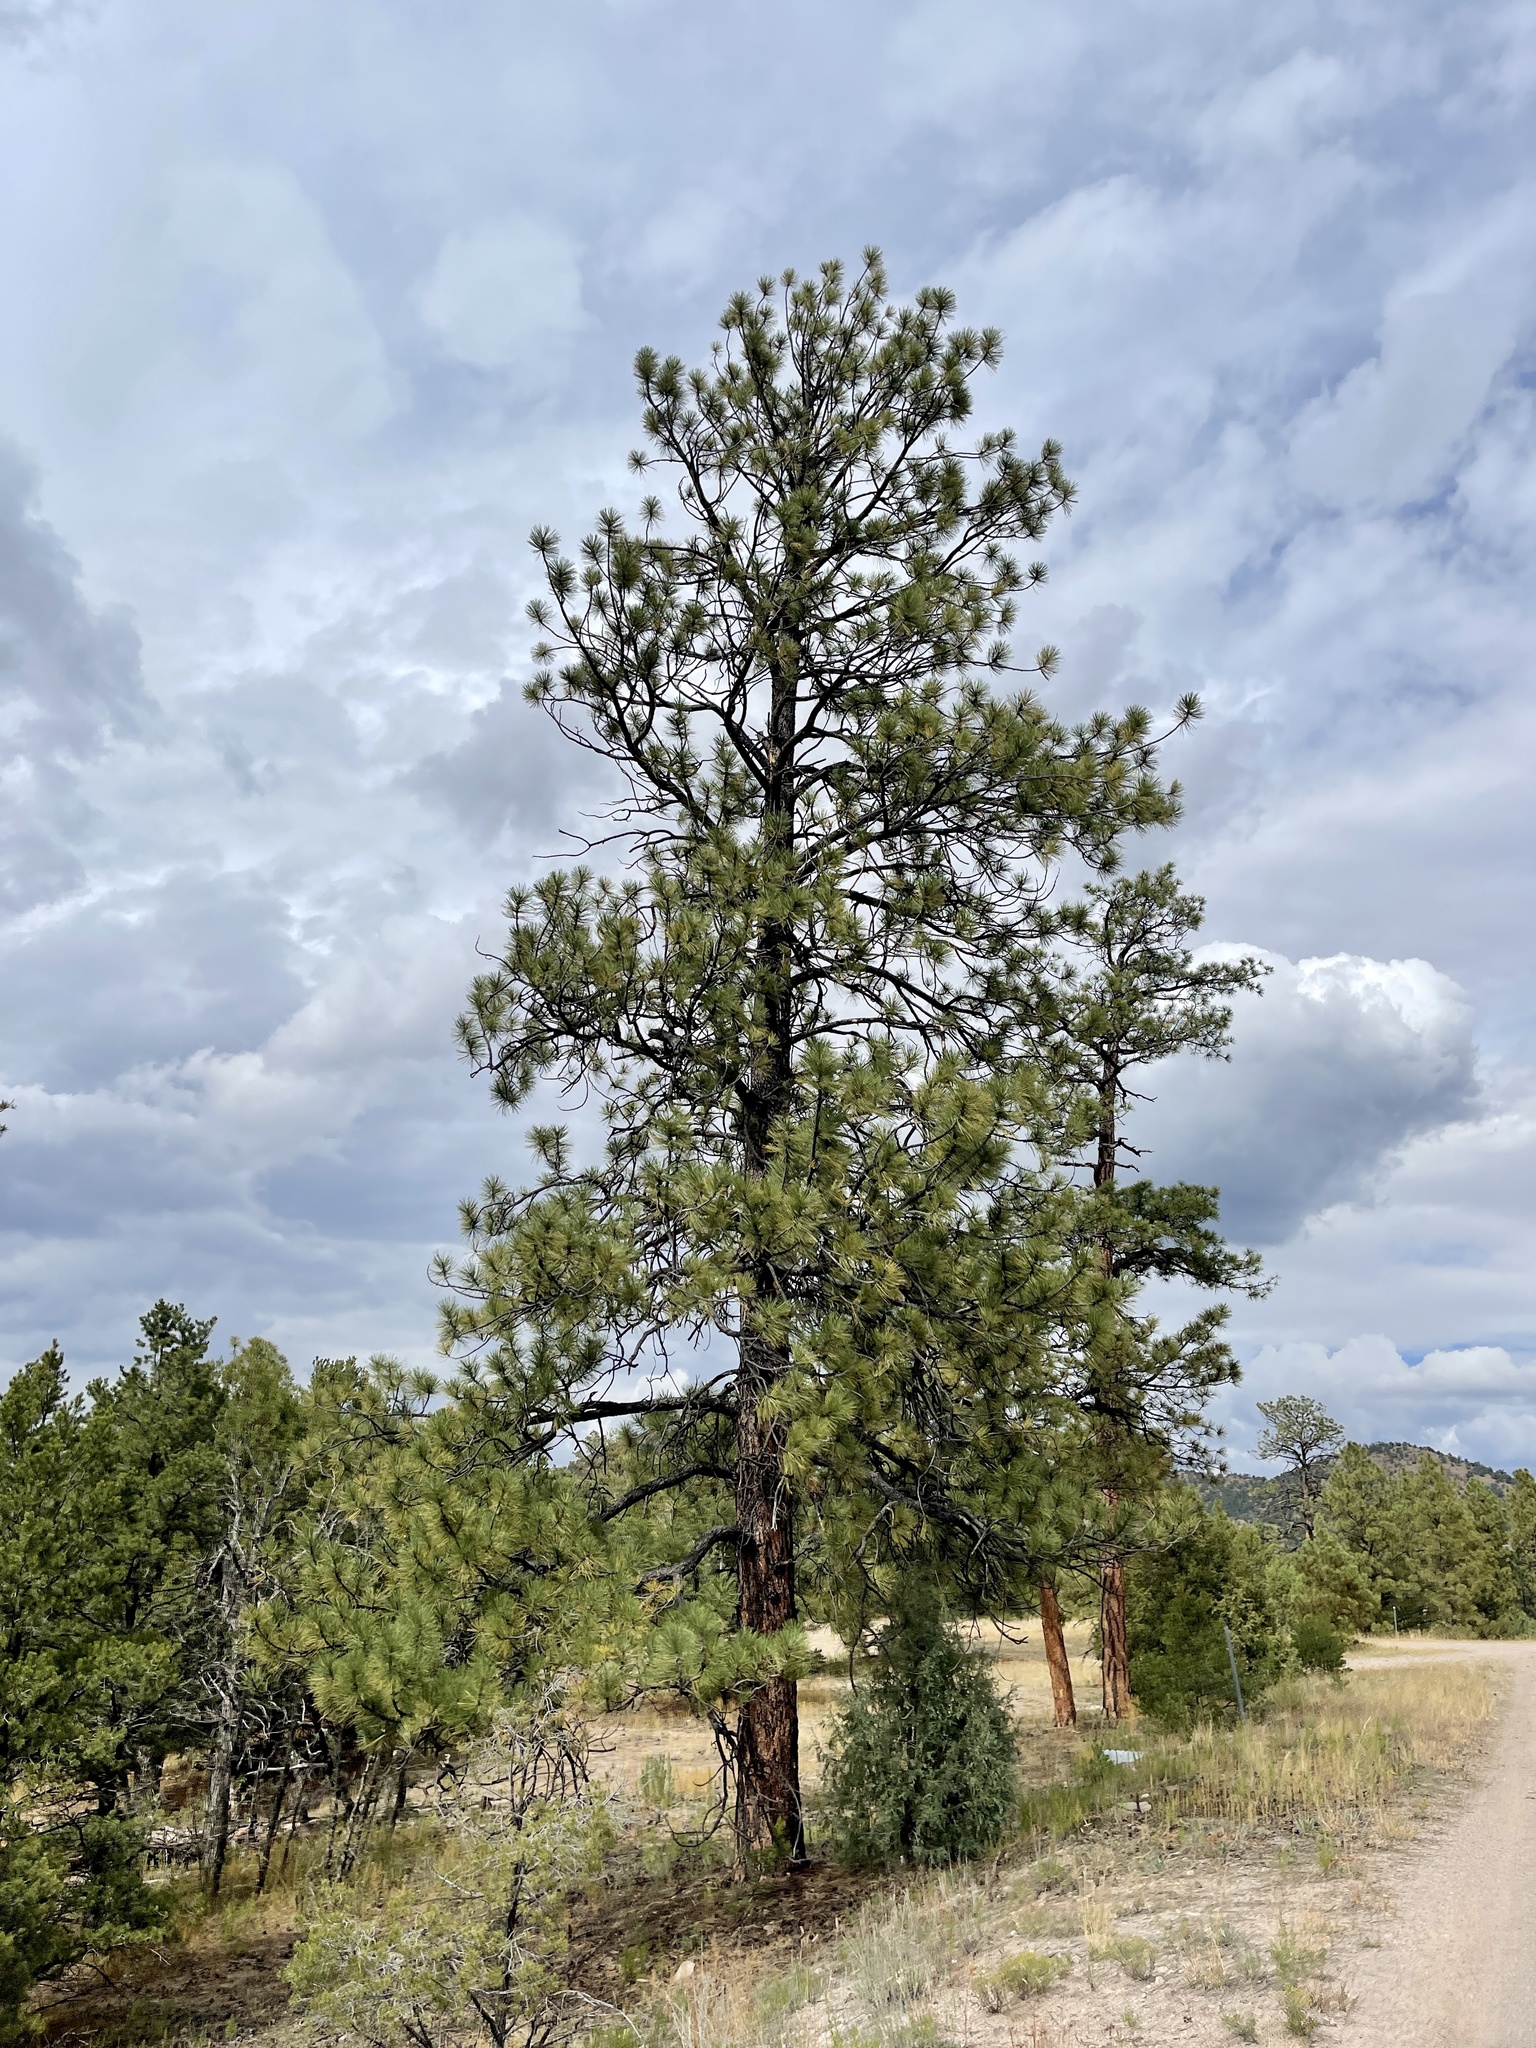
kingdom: Plantae
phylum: Tracheophyta
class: Pinopsida
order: Pinales
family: Pinaceae
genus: Pinus
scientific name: Pinus ponderosa
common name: Western yellow-pine
